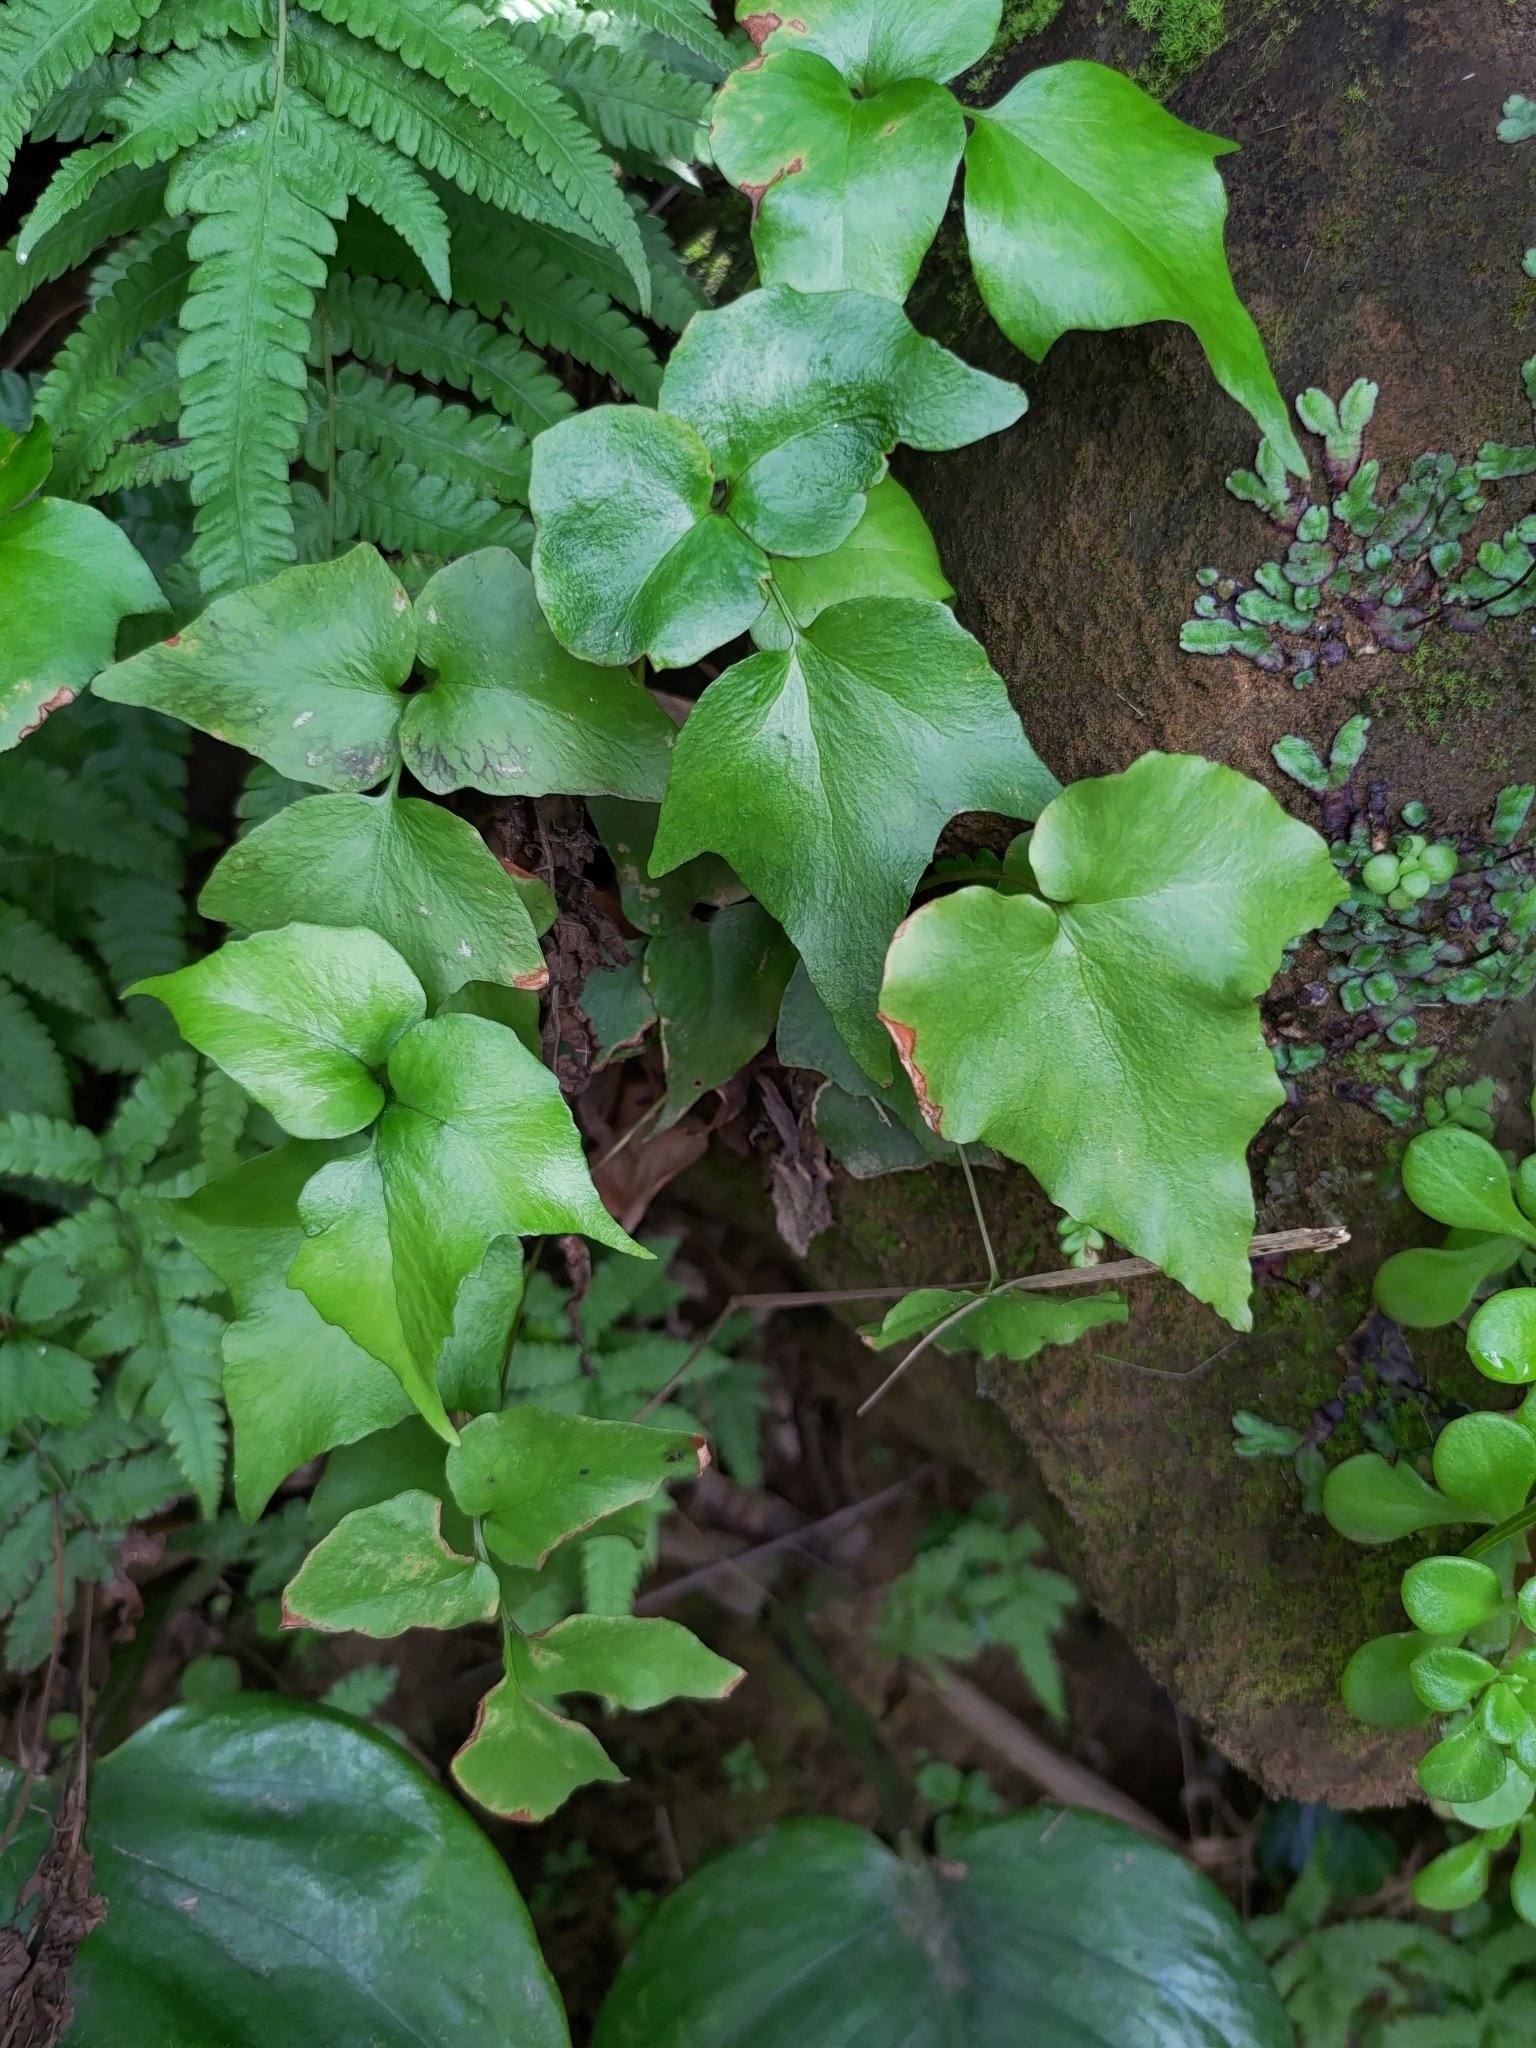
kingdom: Plantae
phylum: Tracheophyta
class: Polypodiopsida
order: Polypodiales
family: Dryopteridaceae
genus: Cyrtomium
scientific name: Cyrtomium falcatum
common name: House holly-fern
